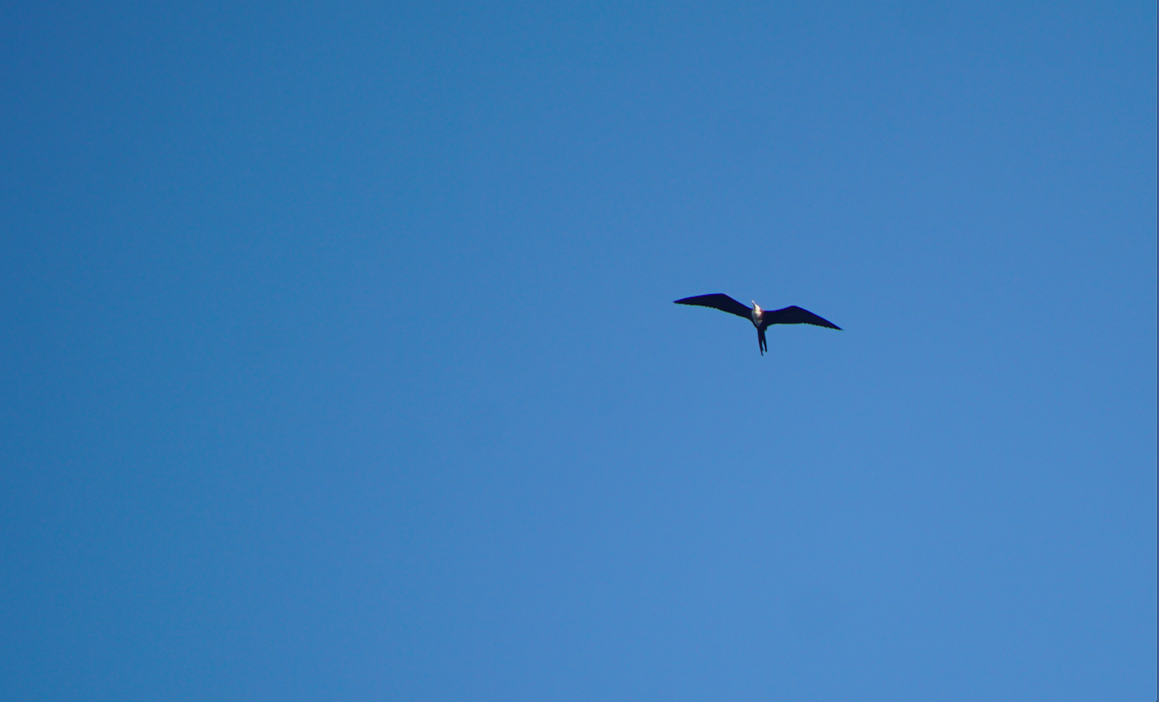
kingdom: Animalia
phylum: Chordata
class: Aves
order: Suliformes
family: Fregatidae
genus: Fregata
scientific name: Fregata magnificens
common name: Magnificent frigatebird
